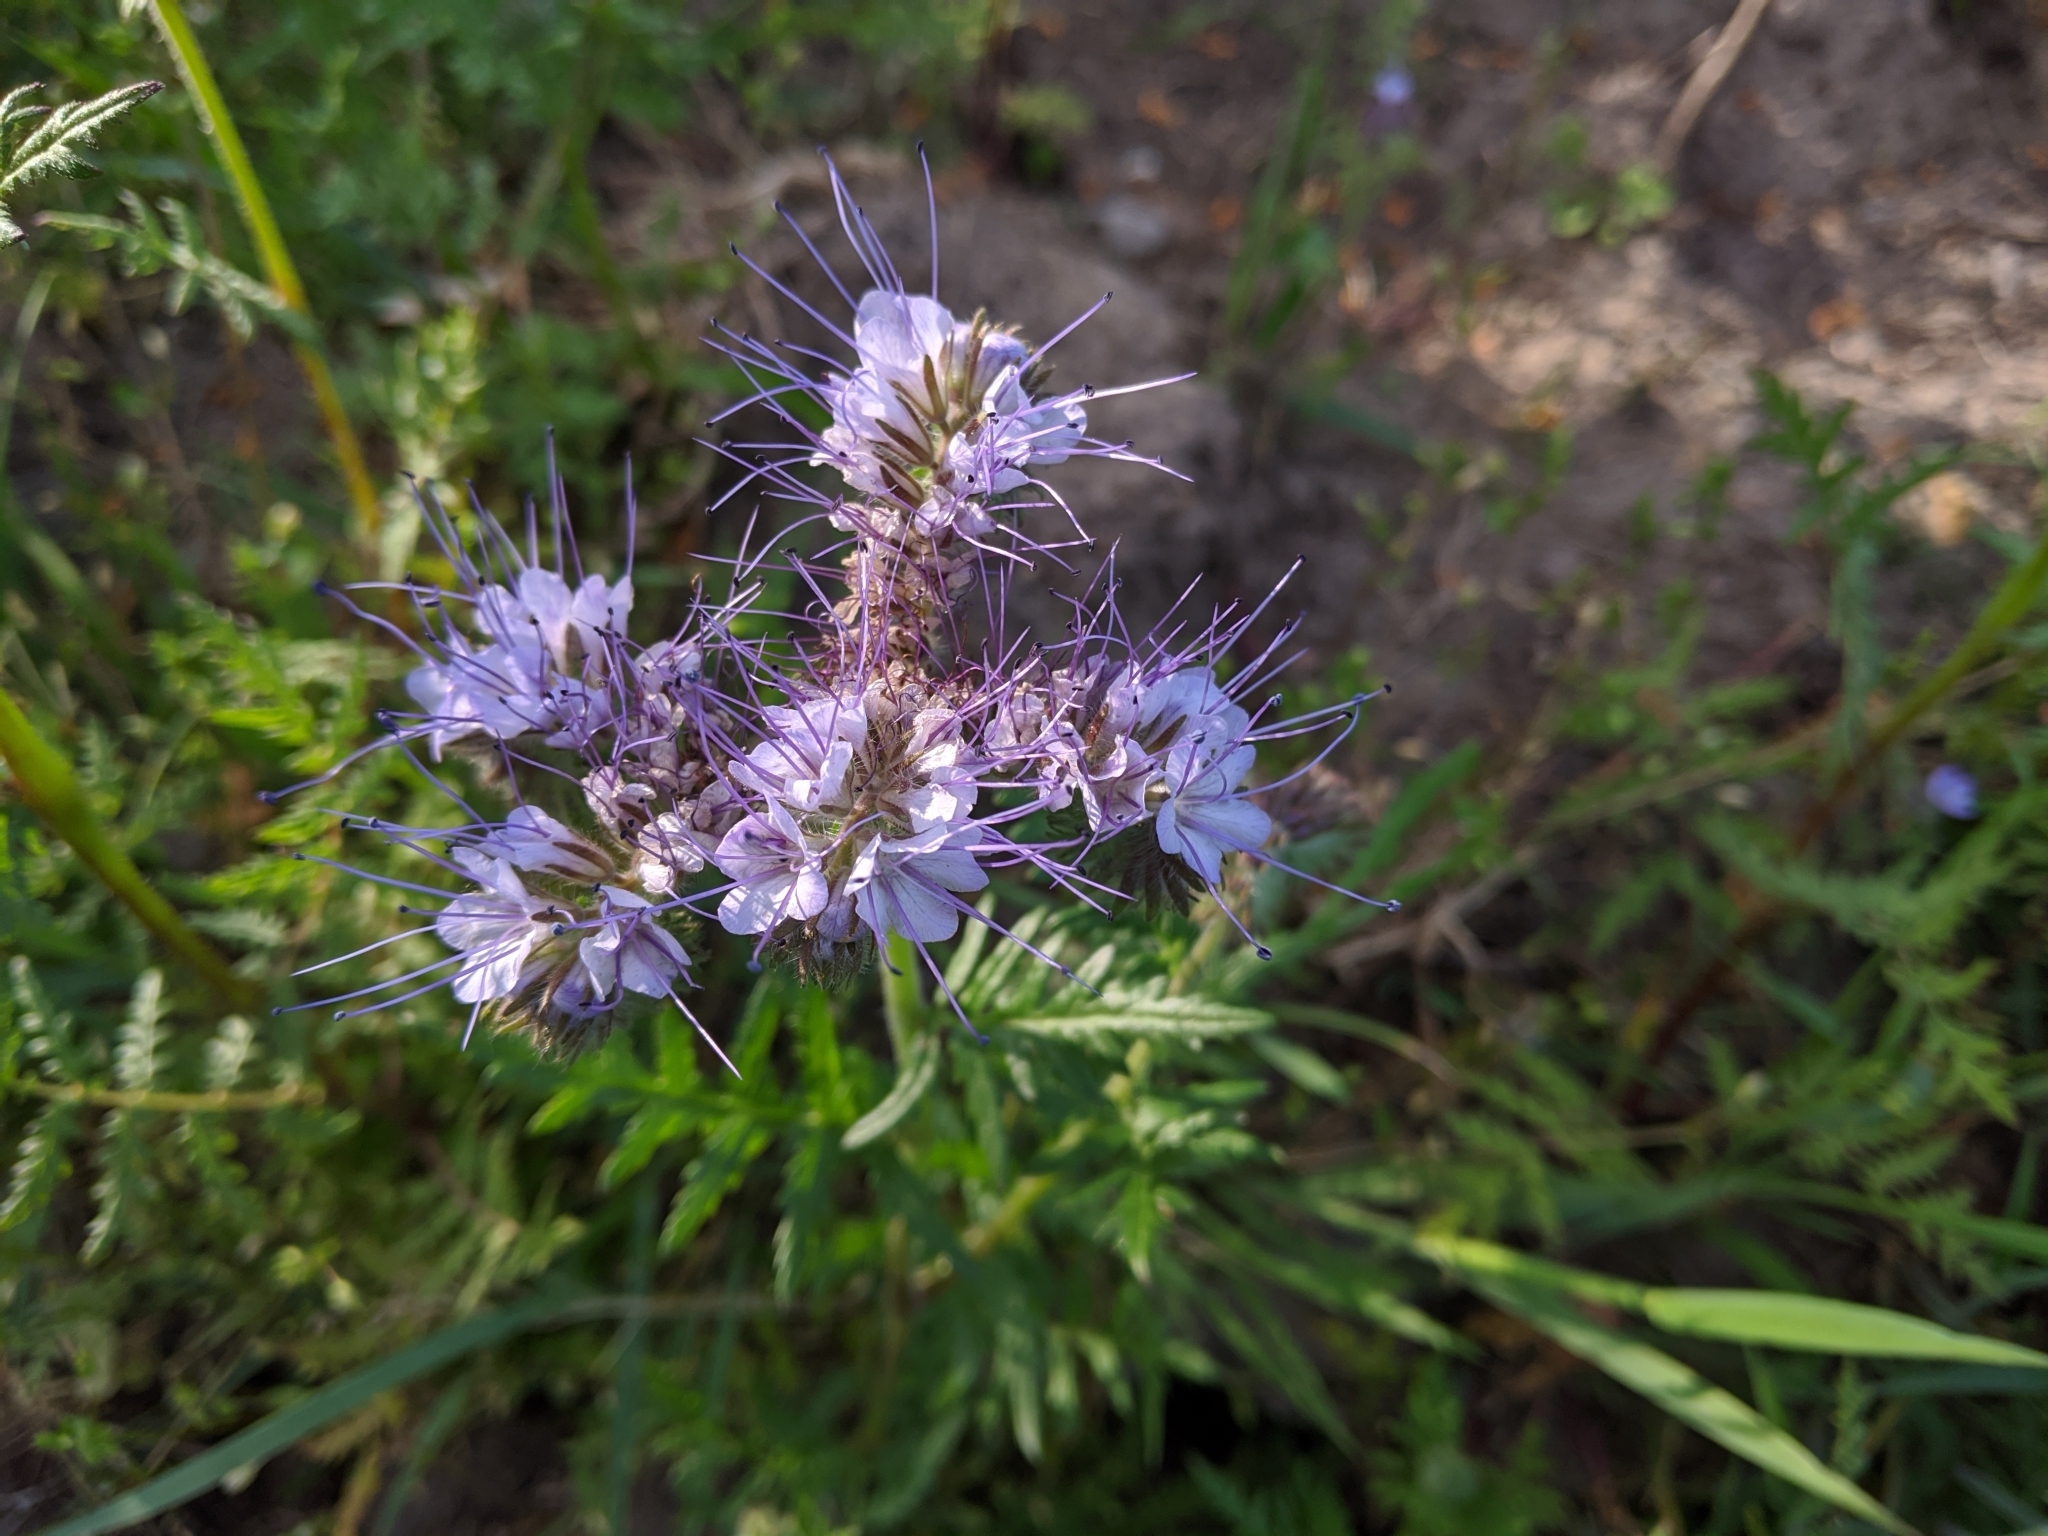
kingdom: Plantae
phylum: Tracheophyta
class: Magnoliopsida
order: Boraginales
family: Hydrophyllaceae
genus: Phacelia
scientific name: Phacelia tanacetifolia
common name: Phacelia
